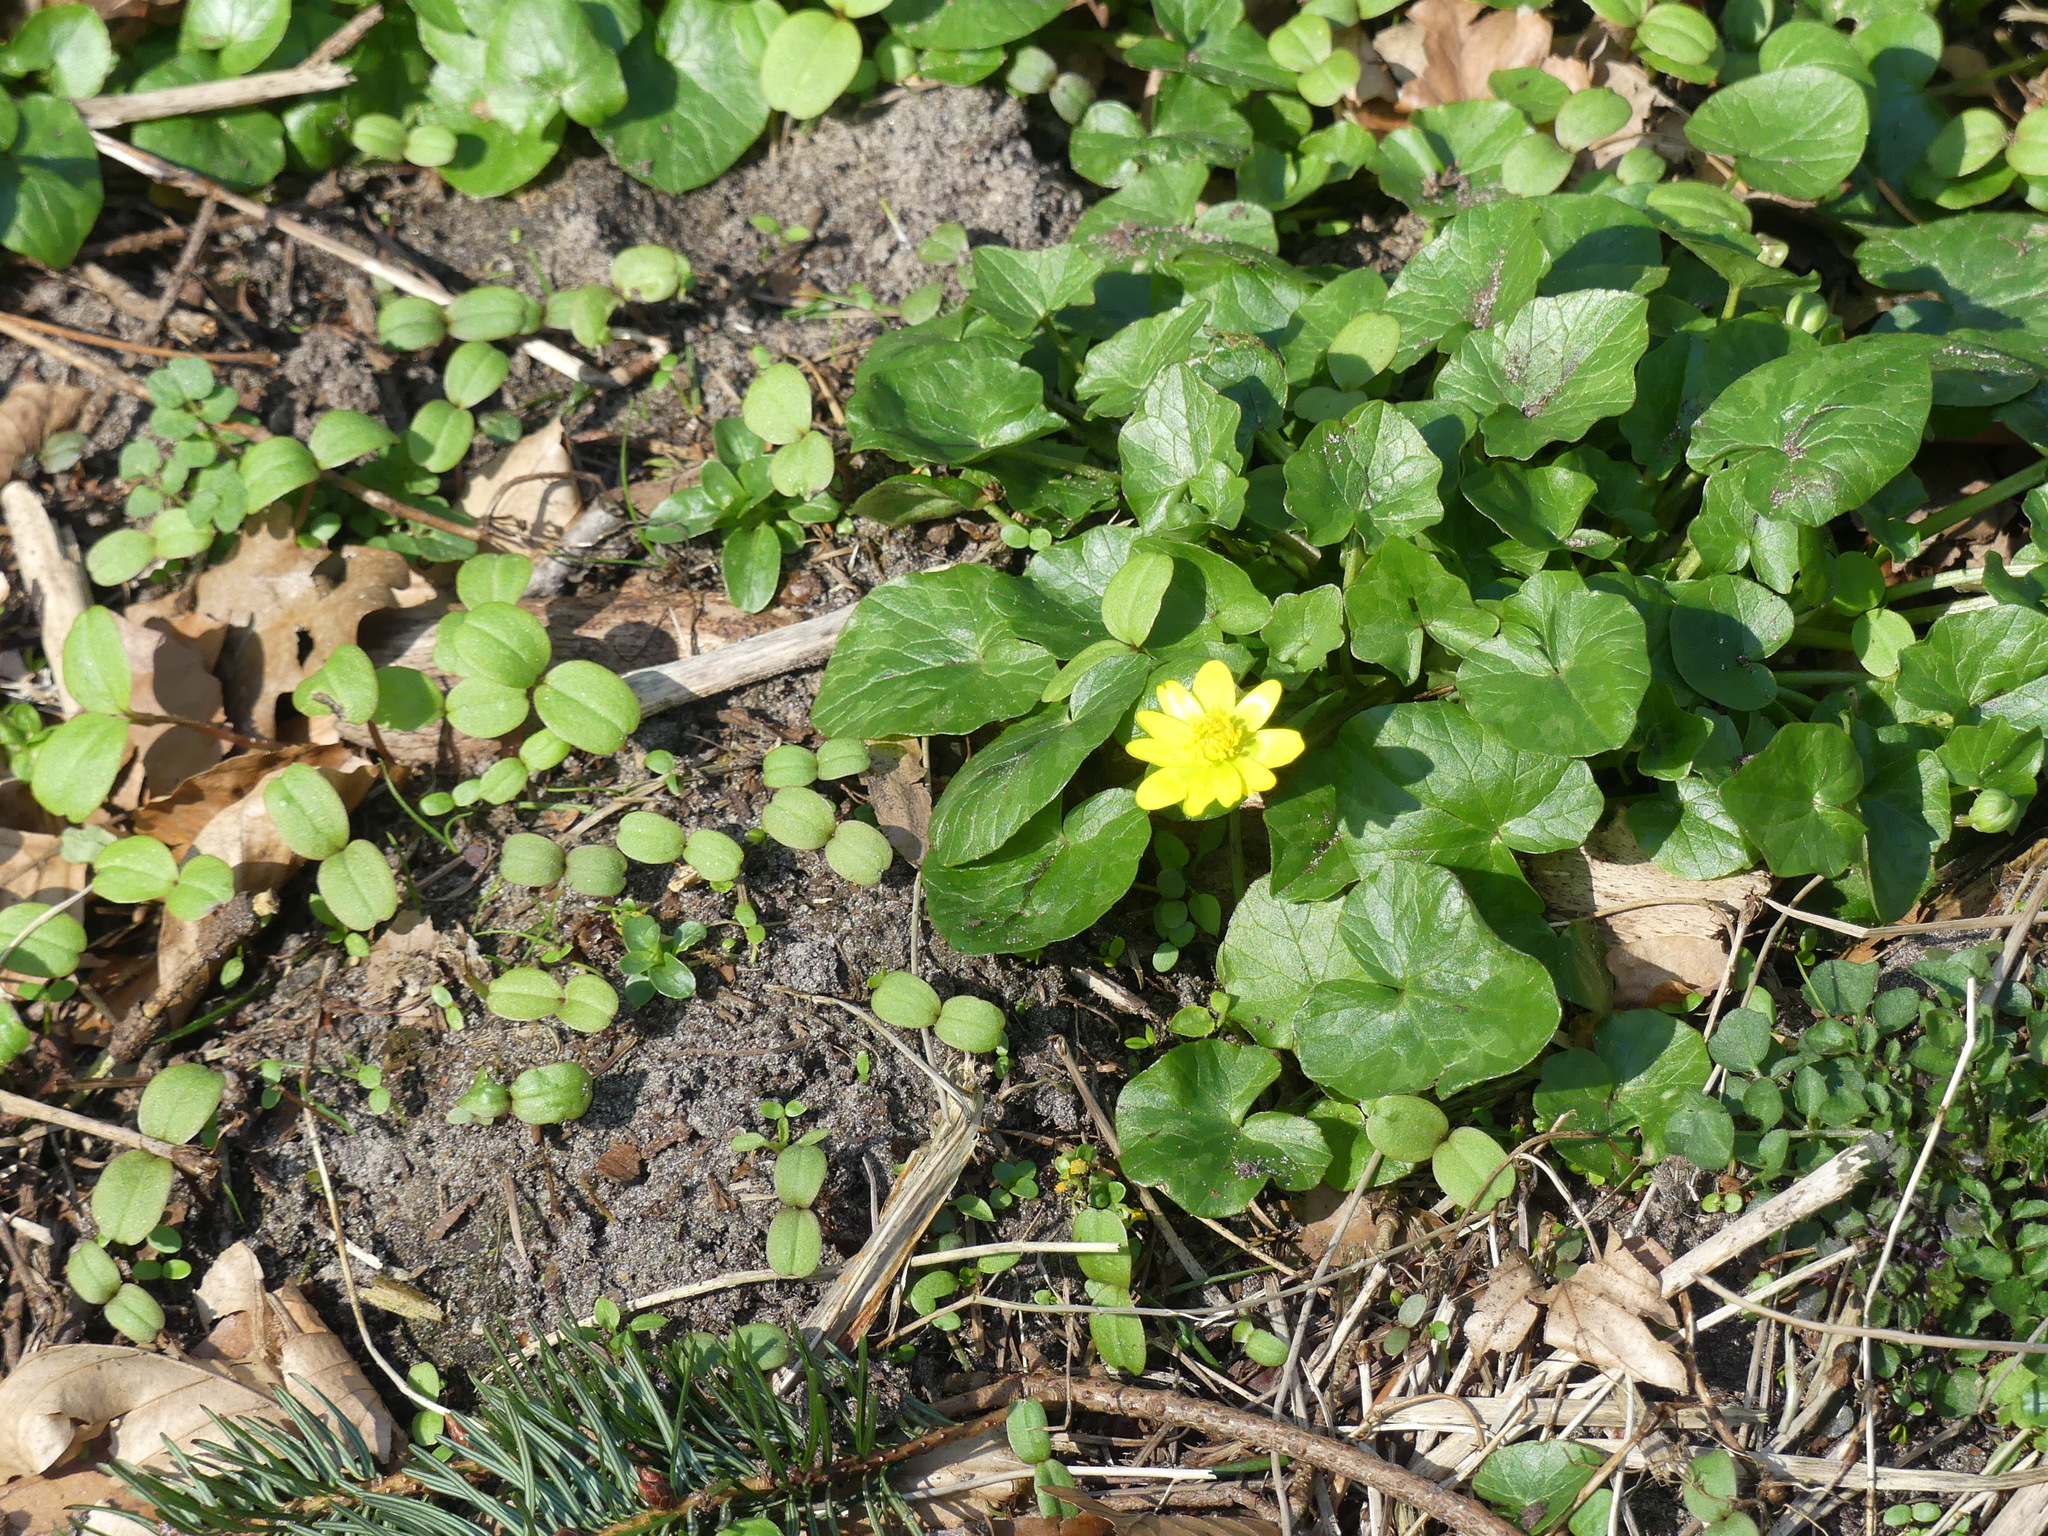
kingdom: Plantae
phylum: Tracheophyta
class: Magnoliopsida
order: Ranunculales
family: Ranunculaceae
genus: Ficaria
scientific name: Ficaria verna
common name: Lesser celandine
